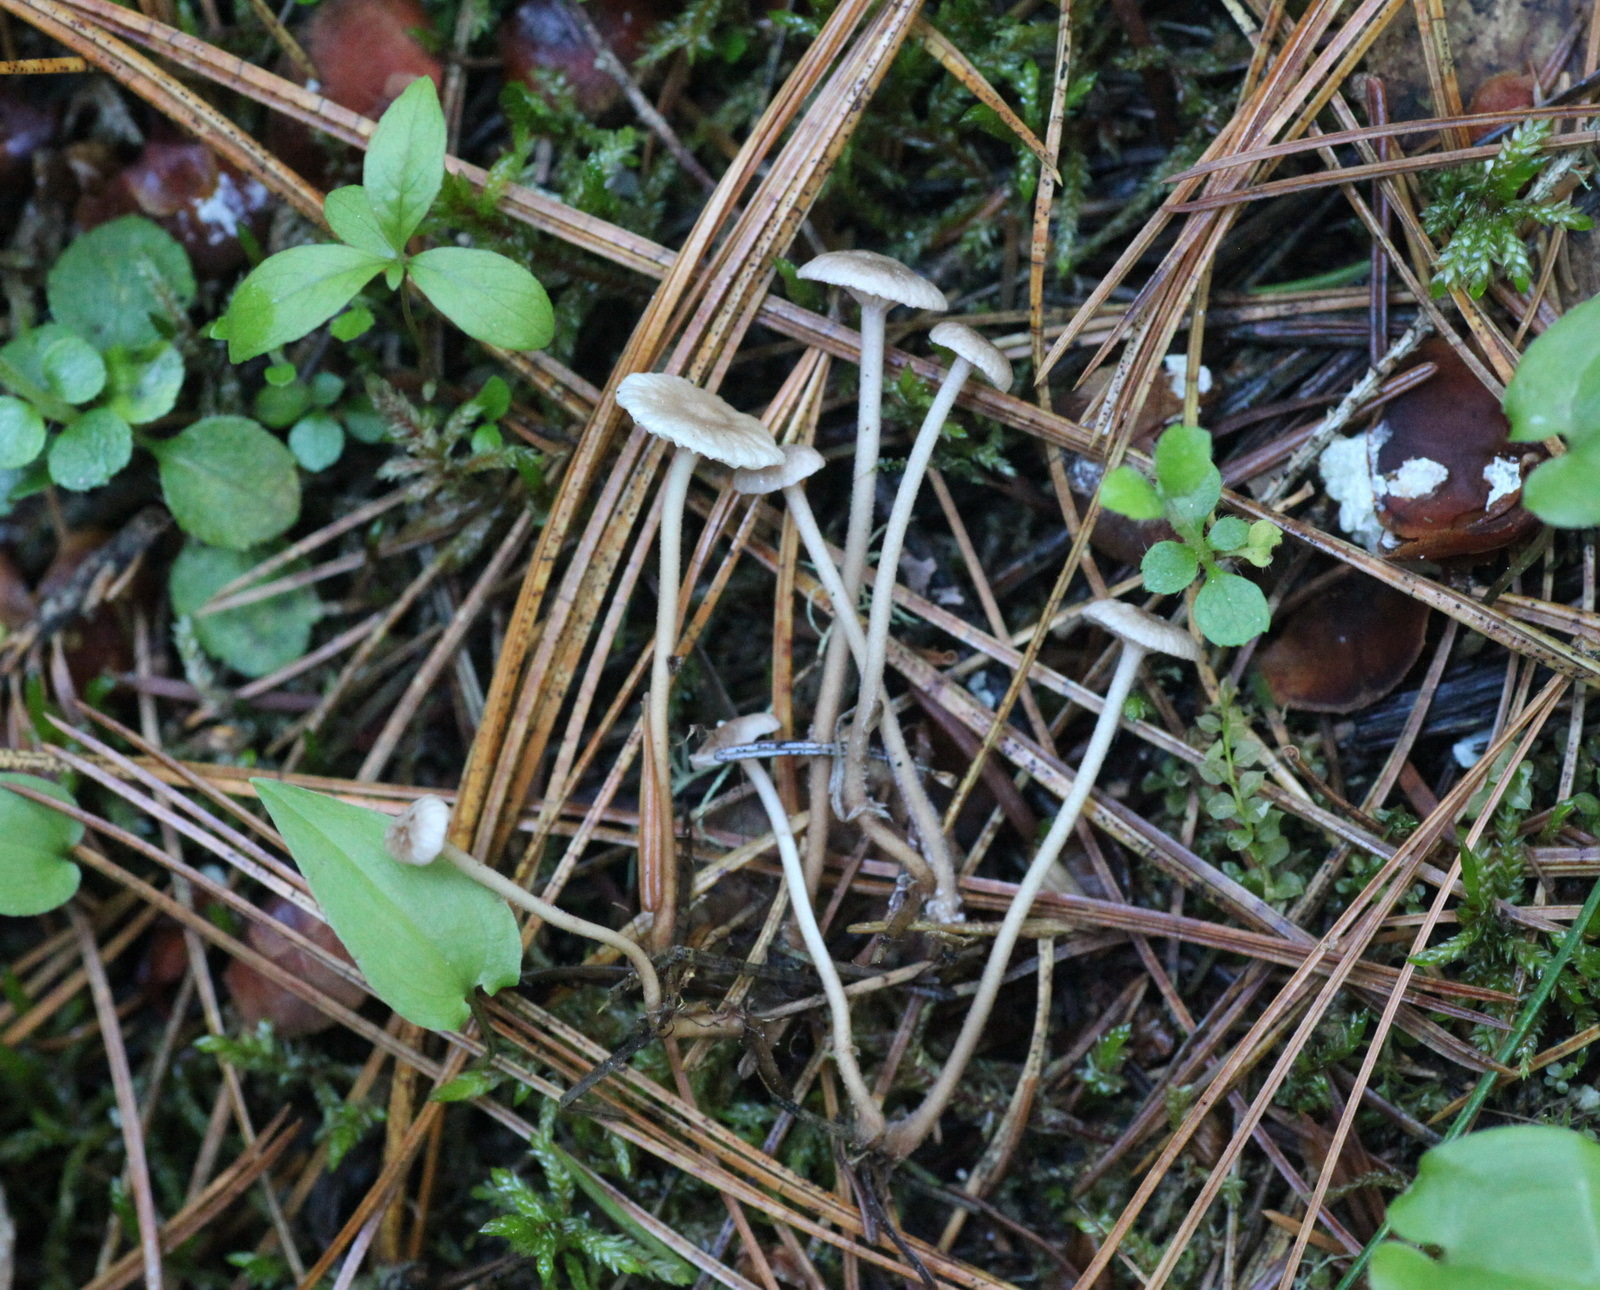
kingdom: Fungi
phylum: Basidiomycota
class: Agaricomycetes
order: Agaricales
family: Omphalotaceae
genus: Mycetinis
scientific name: Mycetinis scorodonius
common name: Vampires bane
